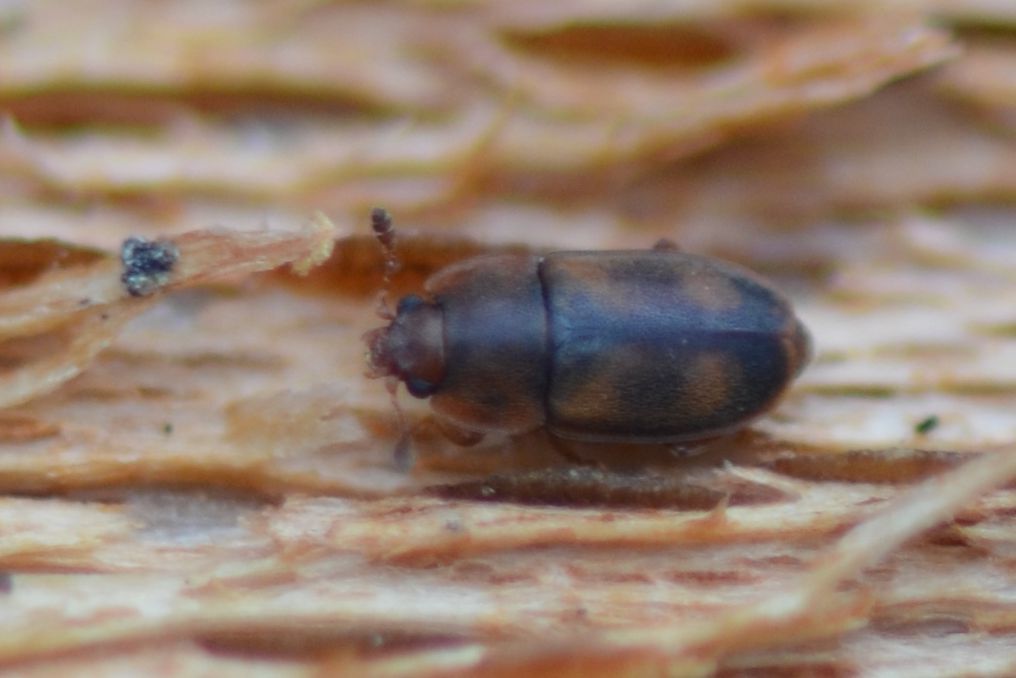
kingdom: Animalia
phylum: Arthropoda
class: Insecta
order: Coleoptera
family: Nitidulidae
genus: Epuraea
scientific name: Epuraea unicolor
